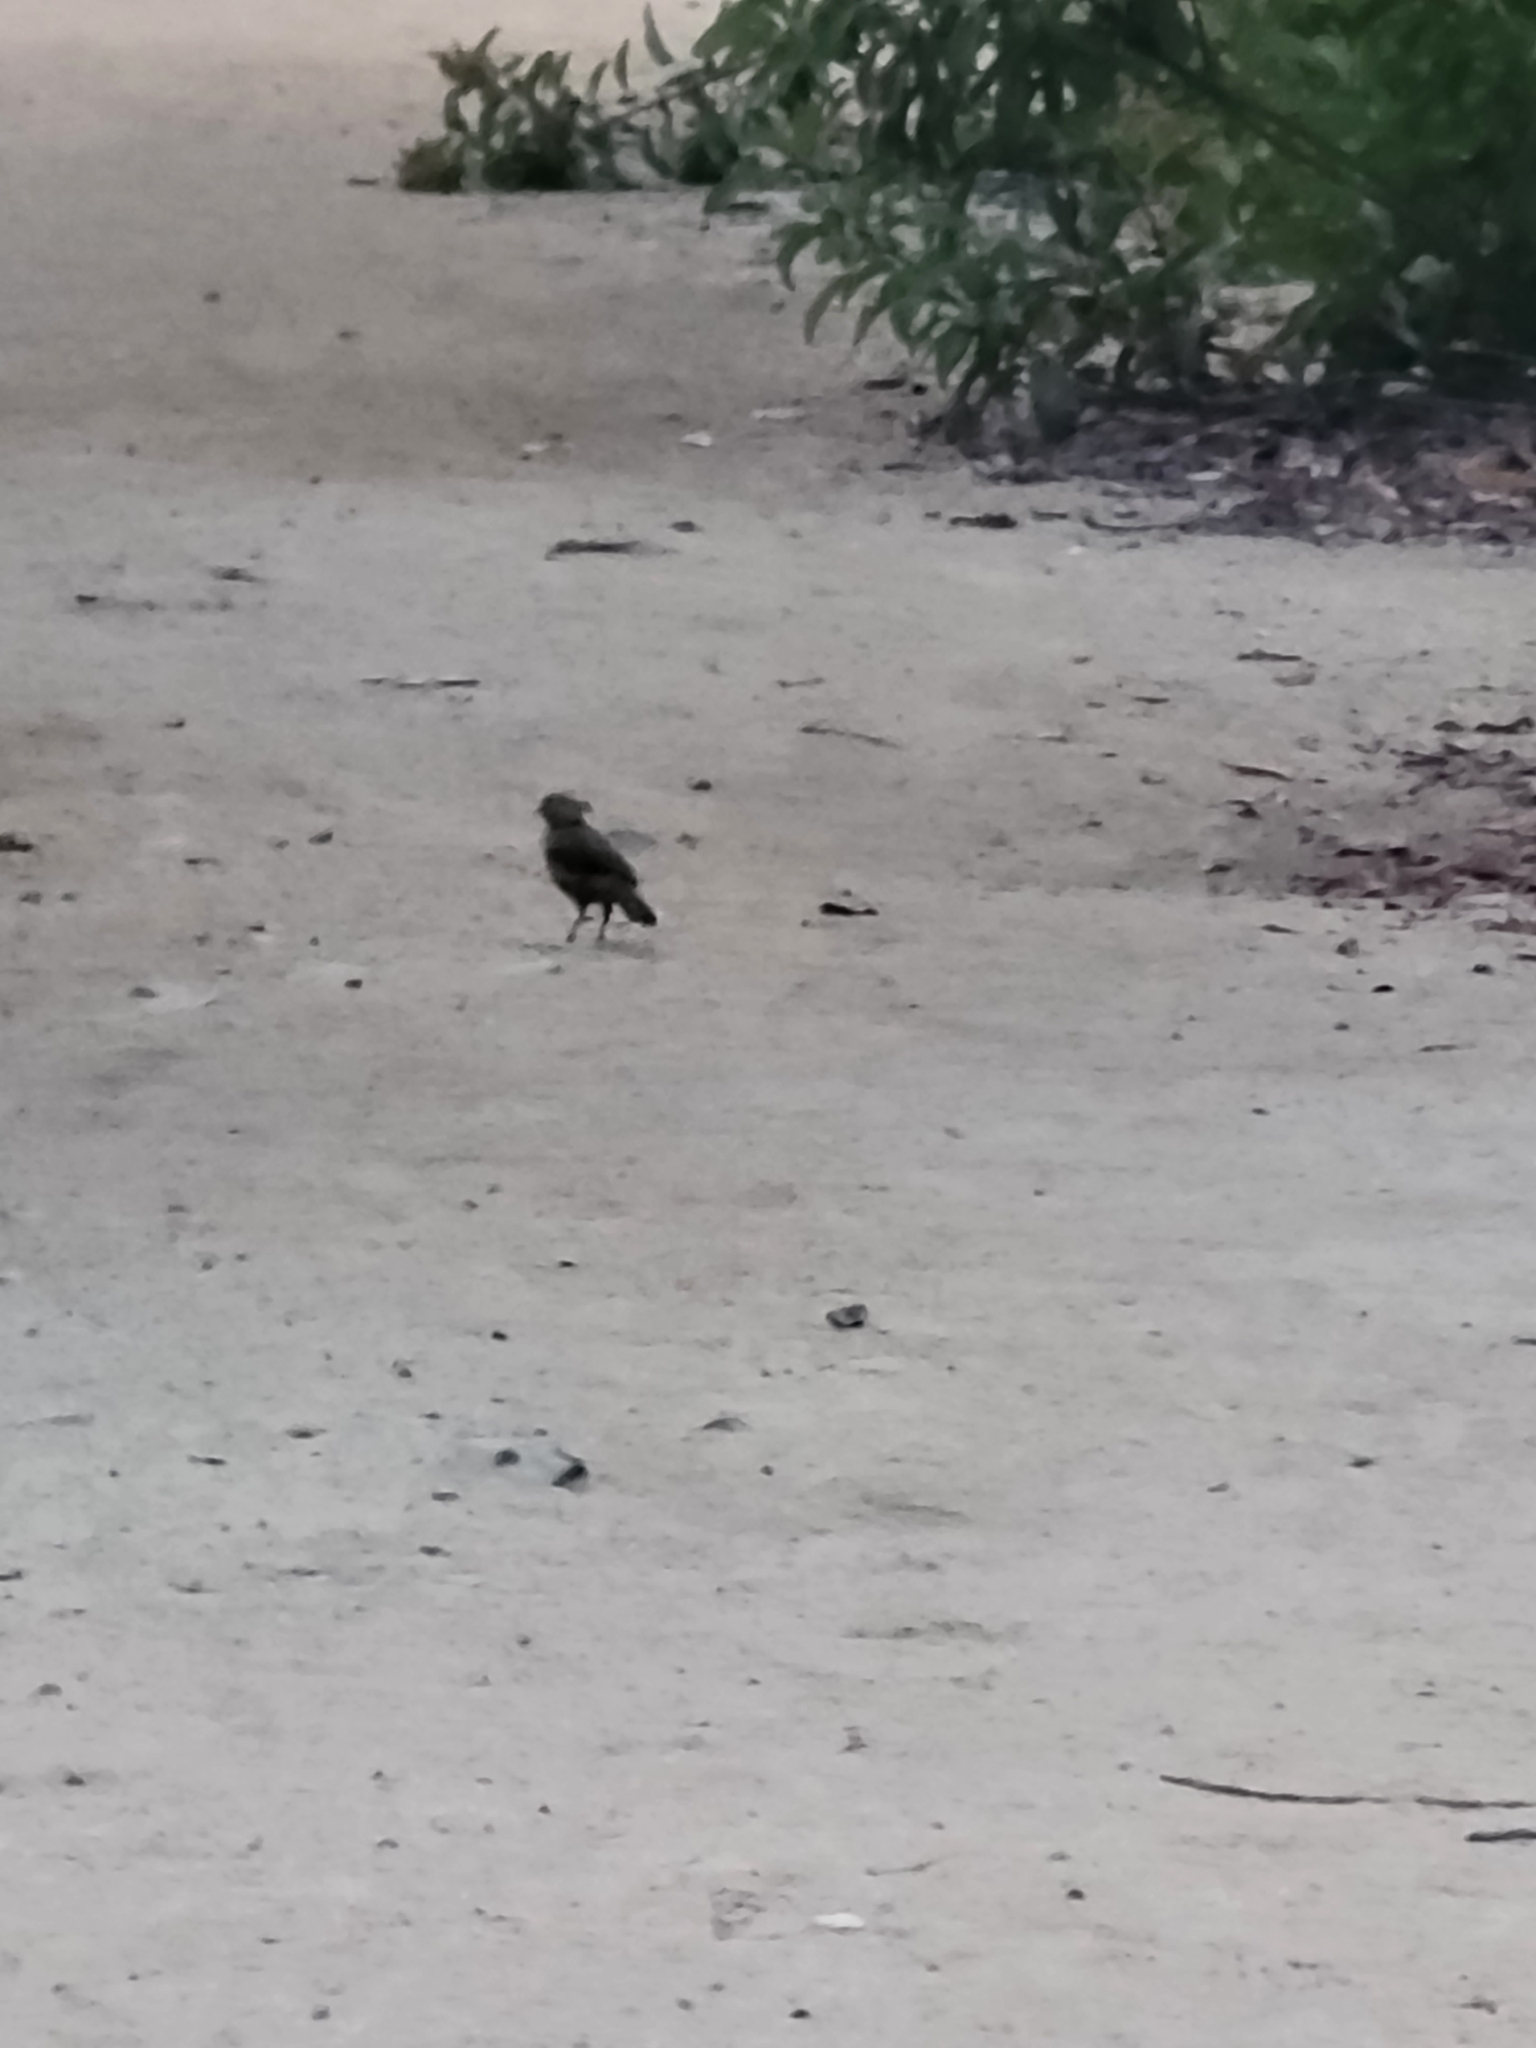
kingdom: Animalia
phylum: Chordata
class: Aves
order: Passeriformes
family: Passerellidae
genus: Melozone
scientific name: Melozone crissalis
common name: California towhee
